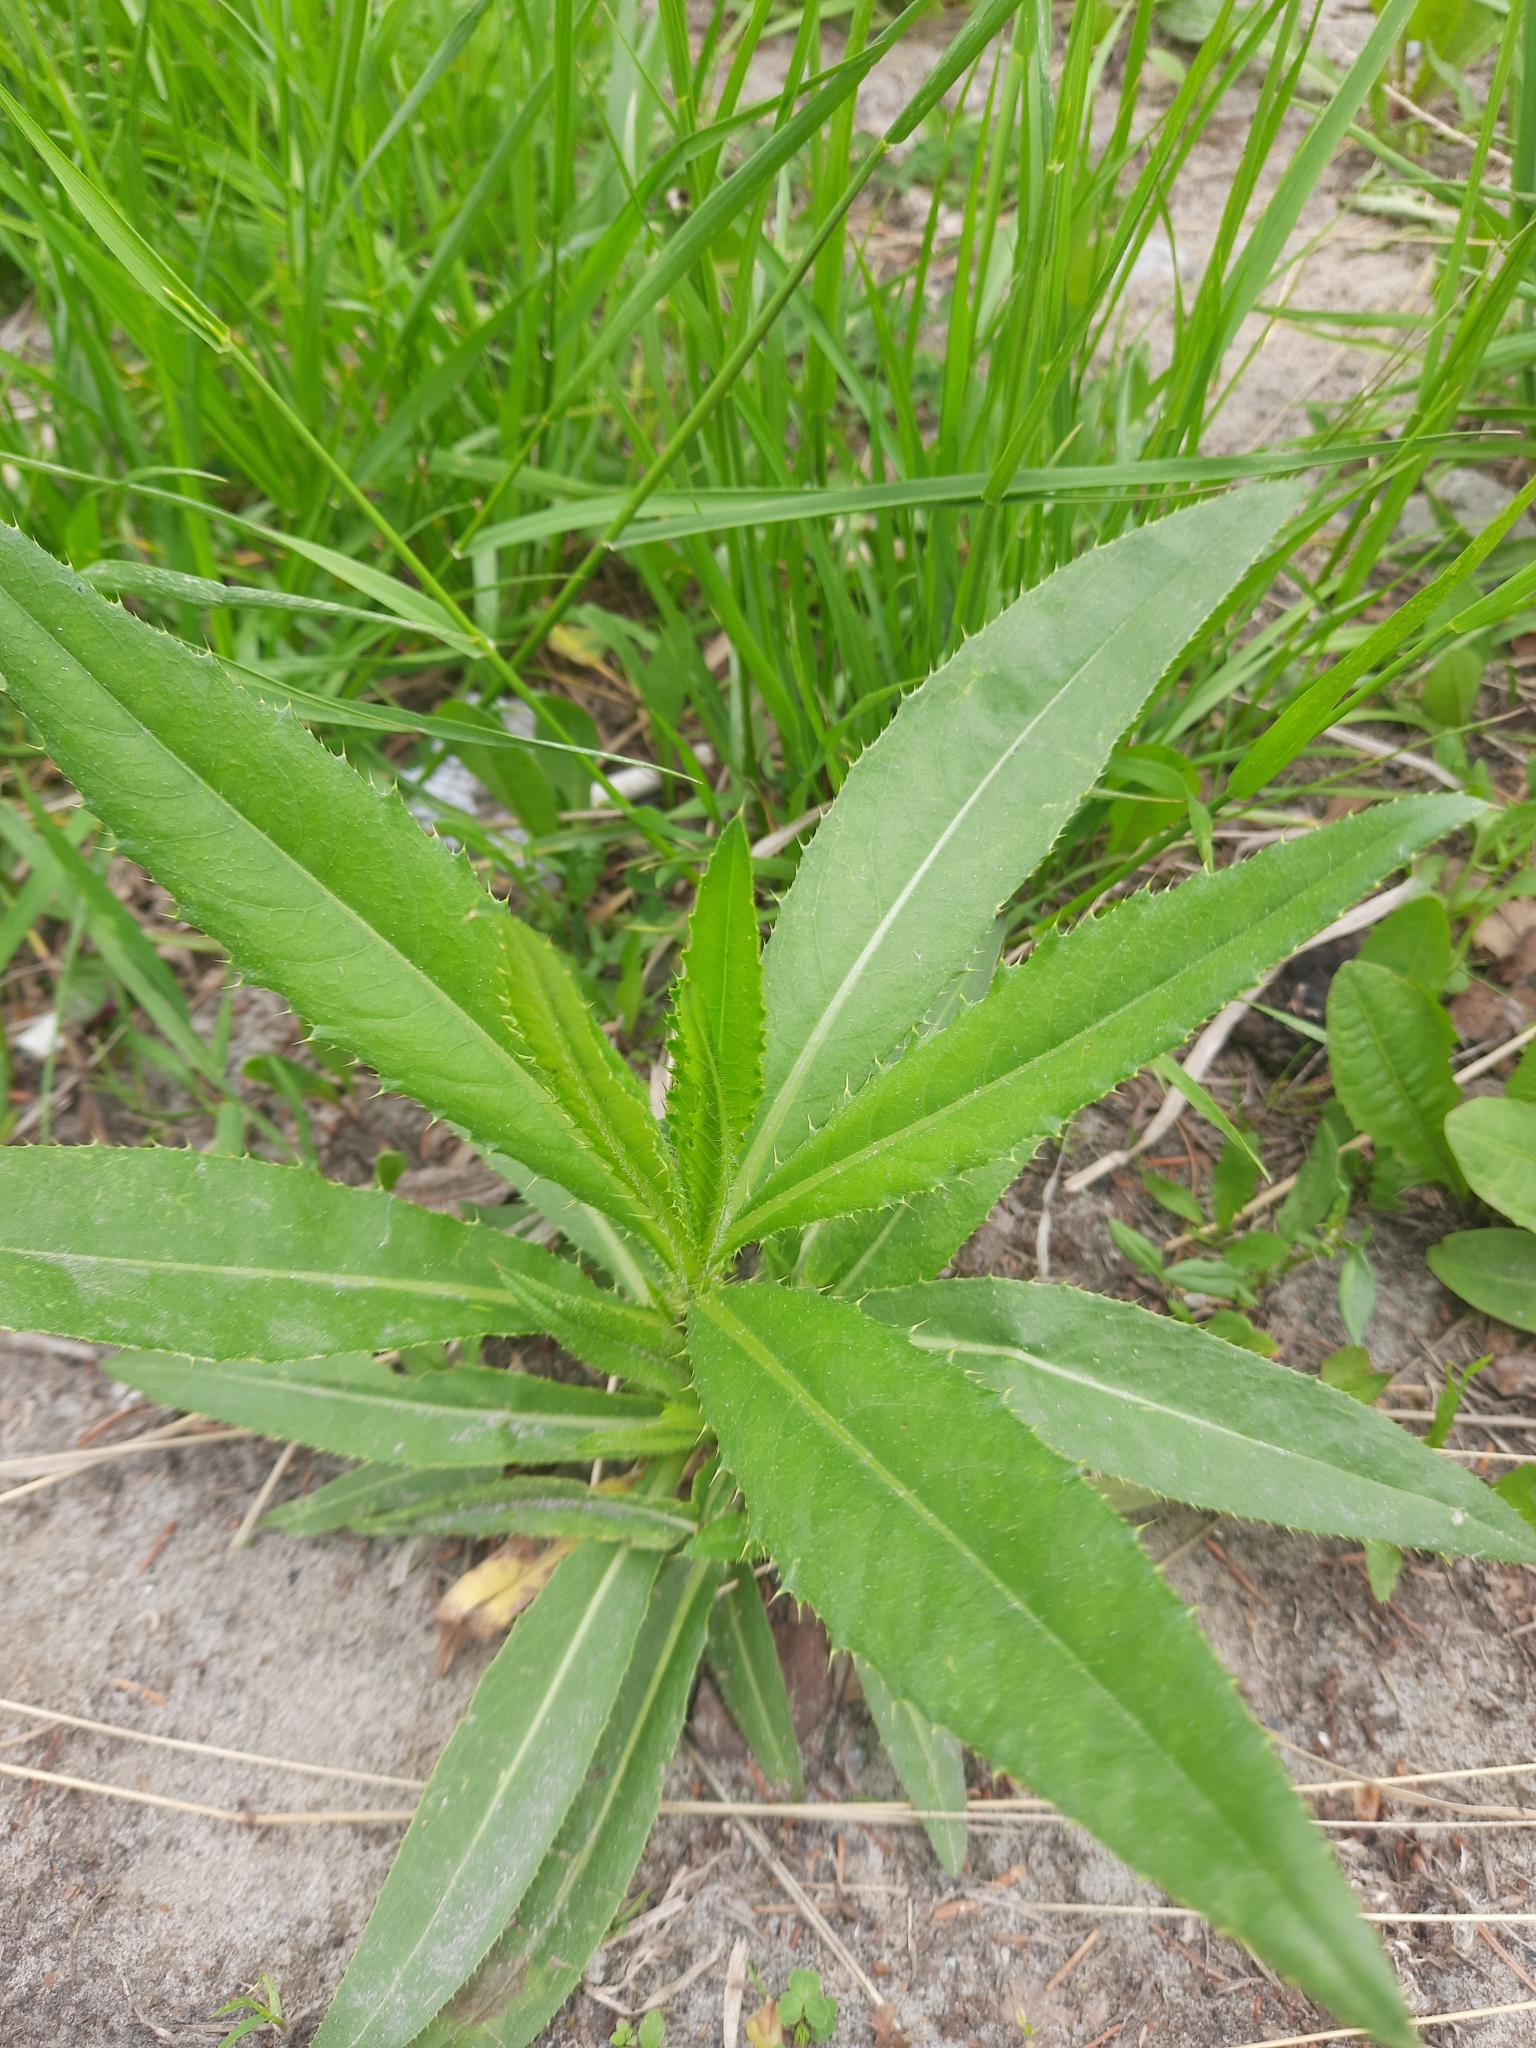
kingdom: Plantae
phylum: Tracheophyta
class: Magnoliopsida
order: Asterales
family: Asteraceae
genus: Cirsium
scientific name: Cirsium arvense
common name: Creeping thistle
